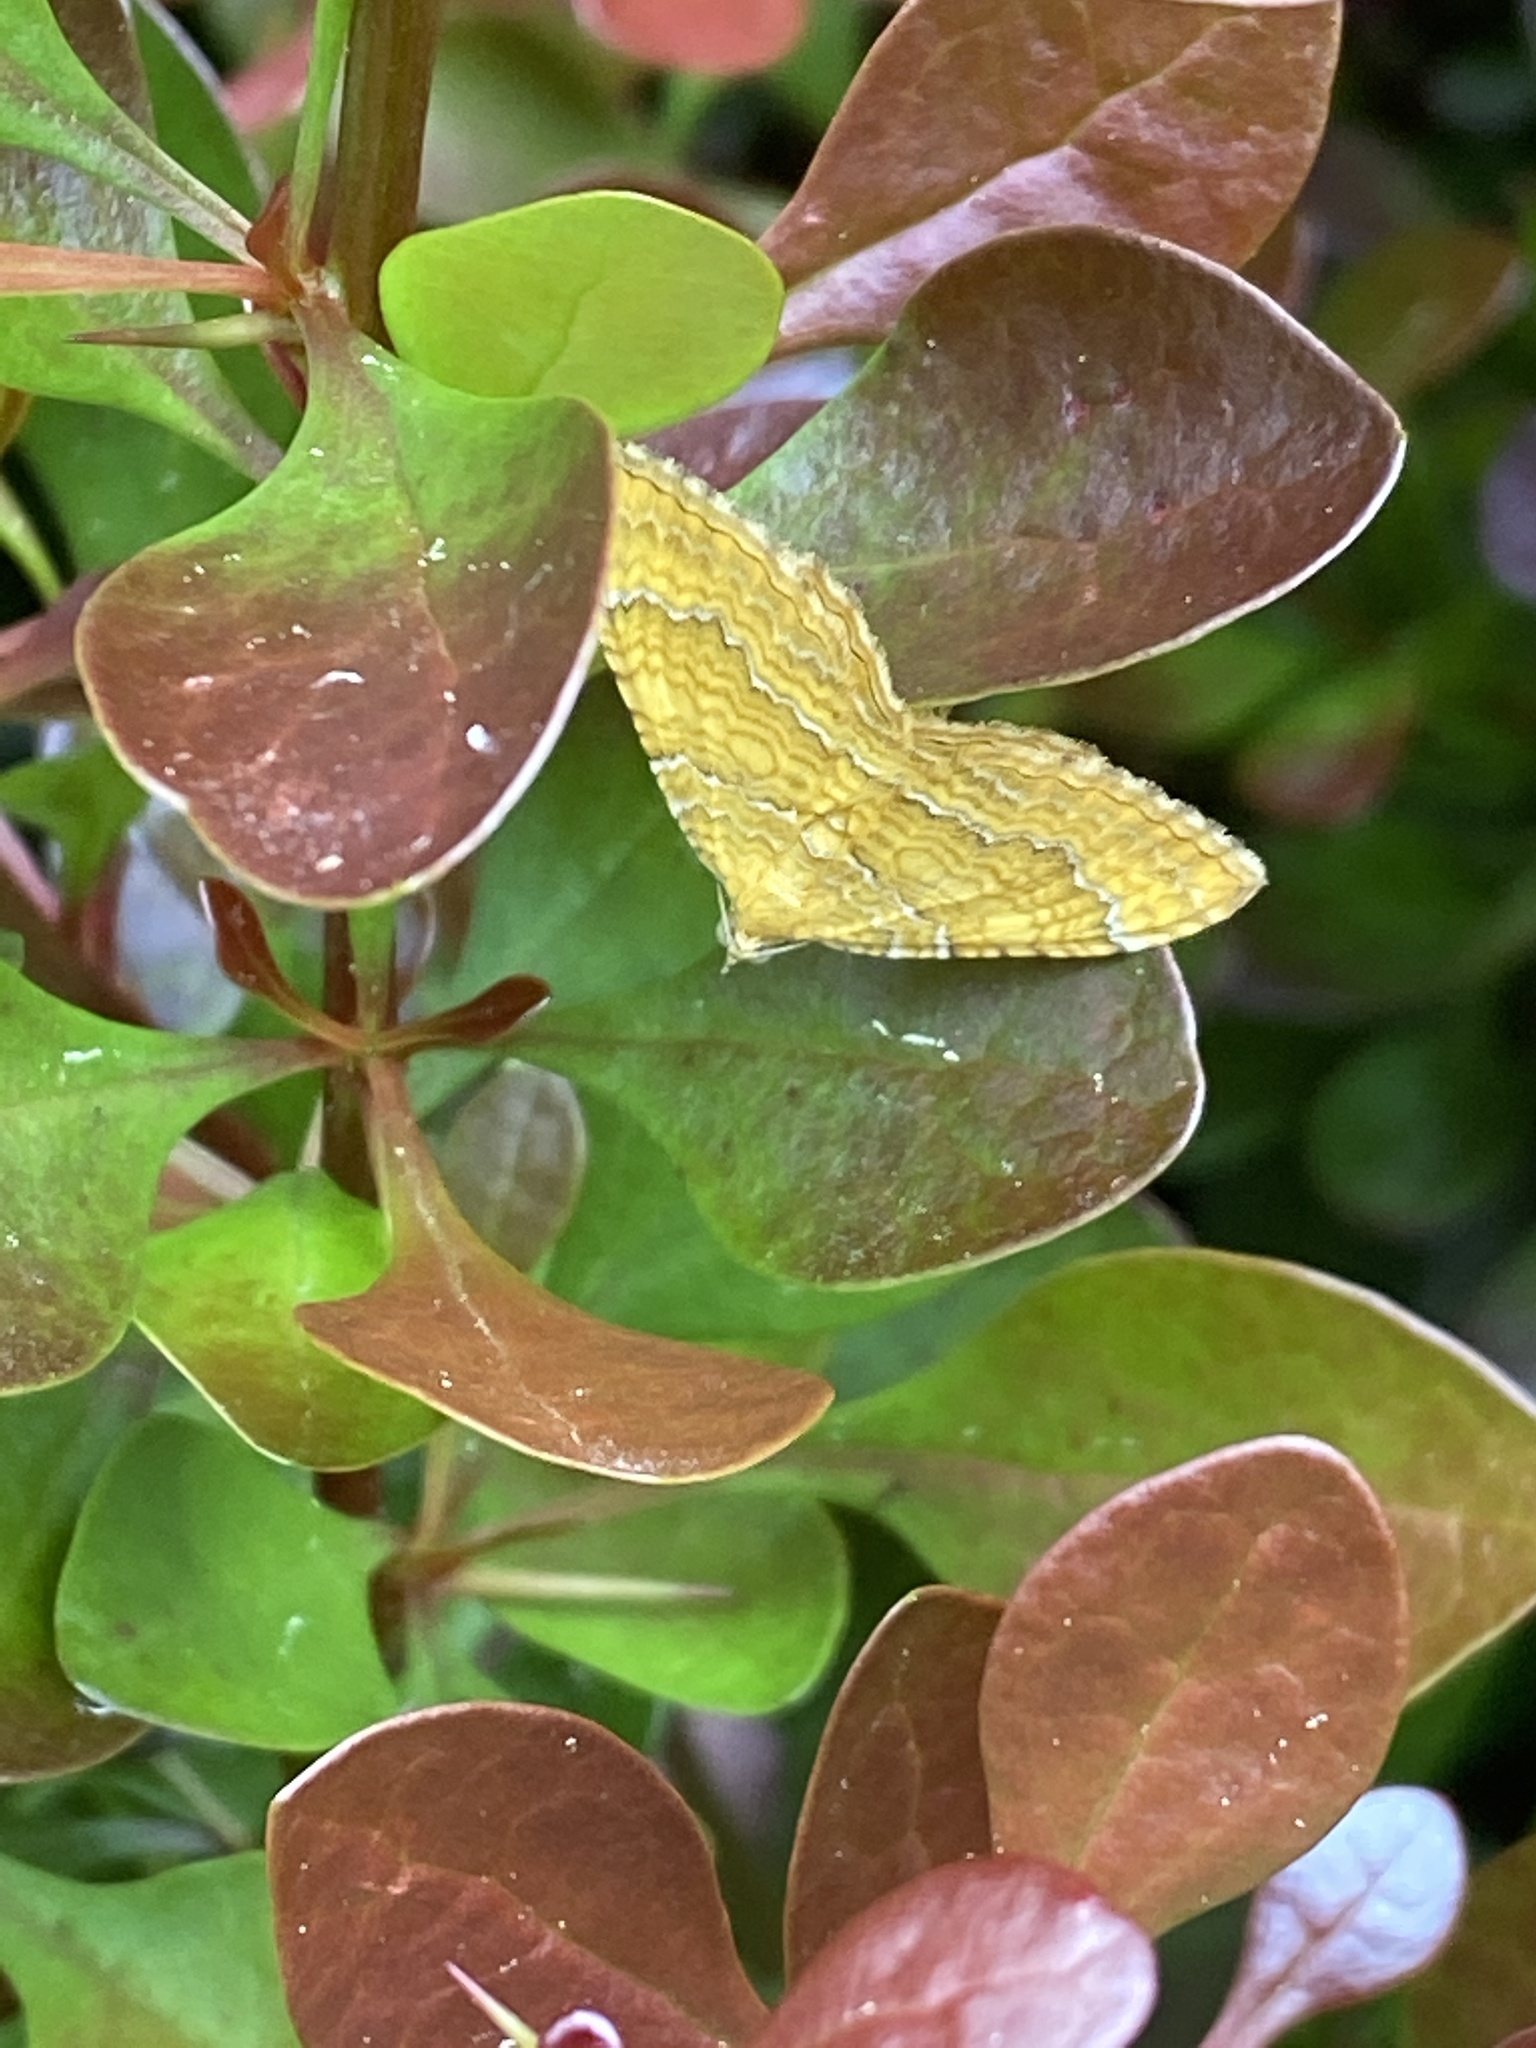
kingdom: Animalia
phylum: Arthropoda
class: Insecta
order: Lepidoptera
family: Geometridae
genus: Camptogramma
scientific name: Camptogramma bilineata
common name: Yellow shell
